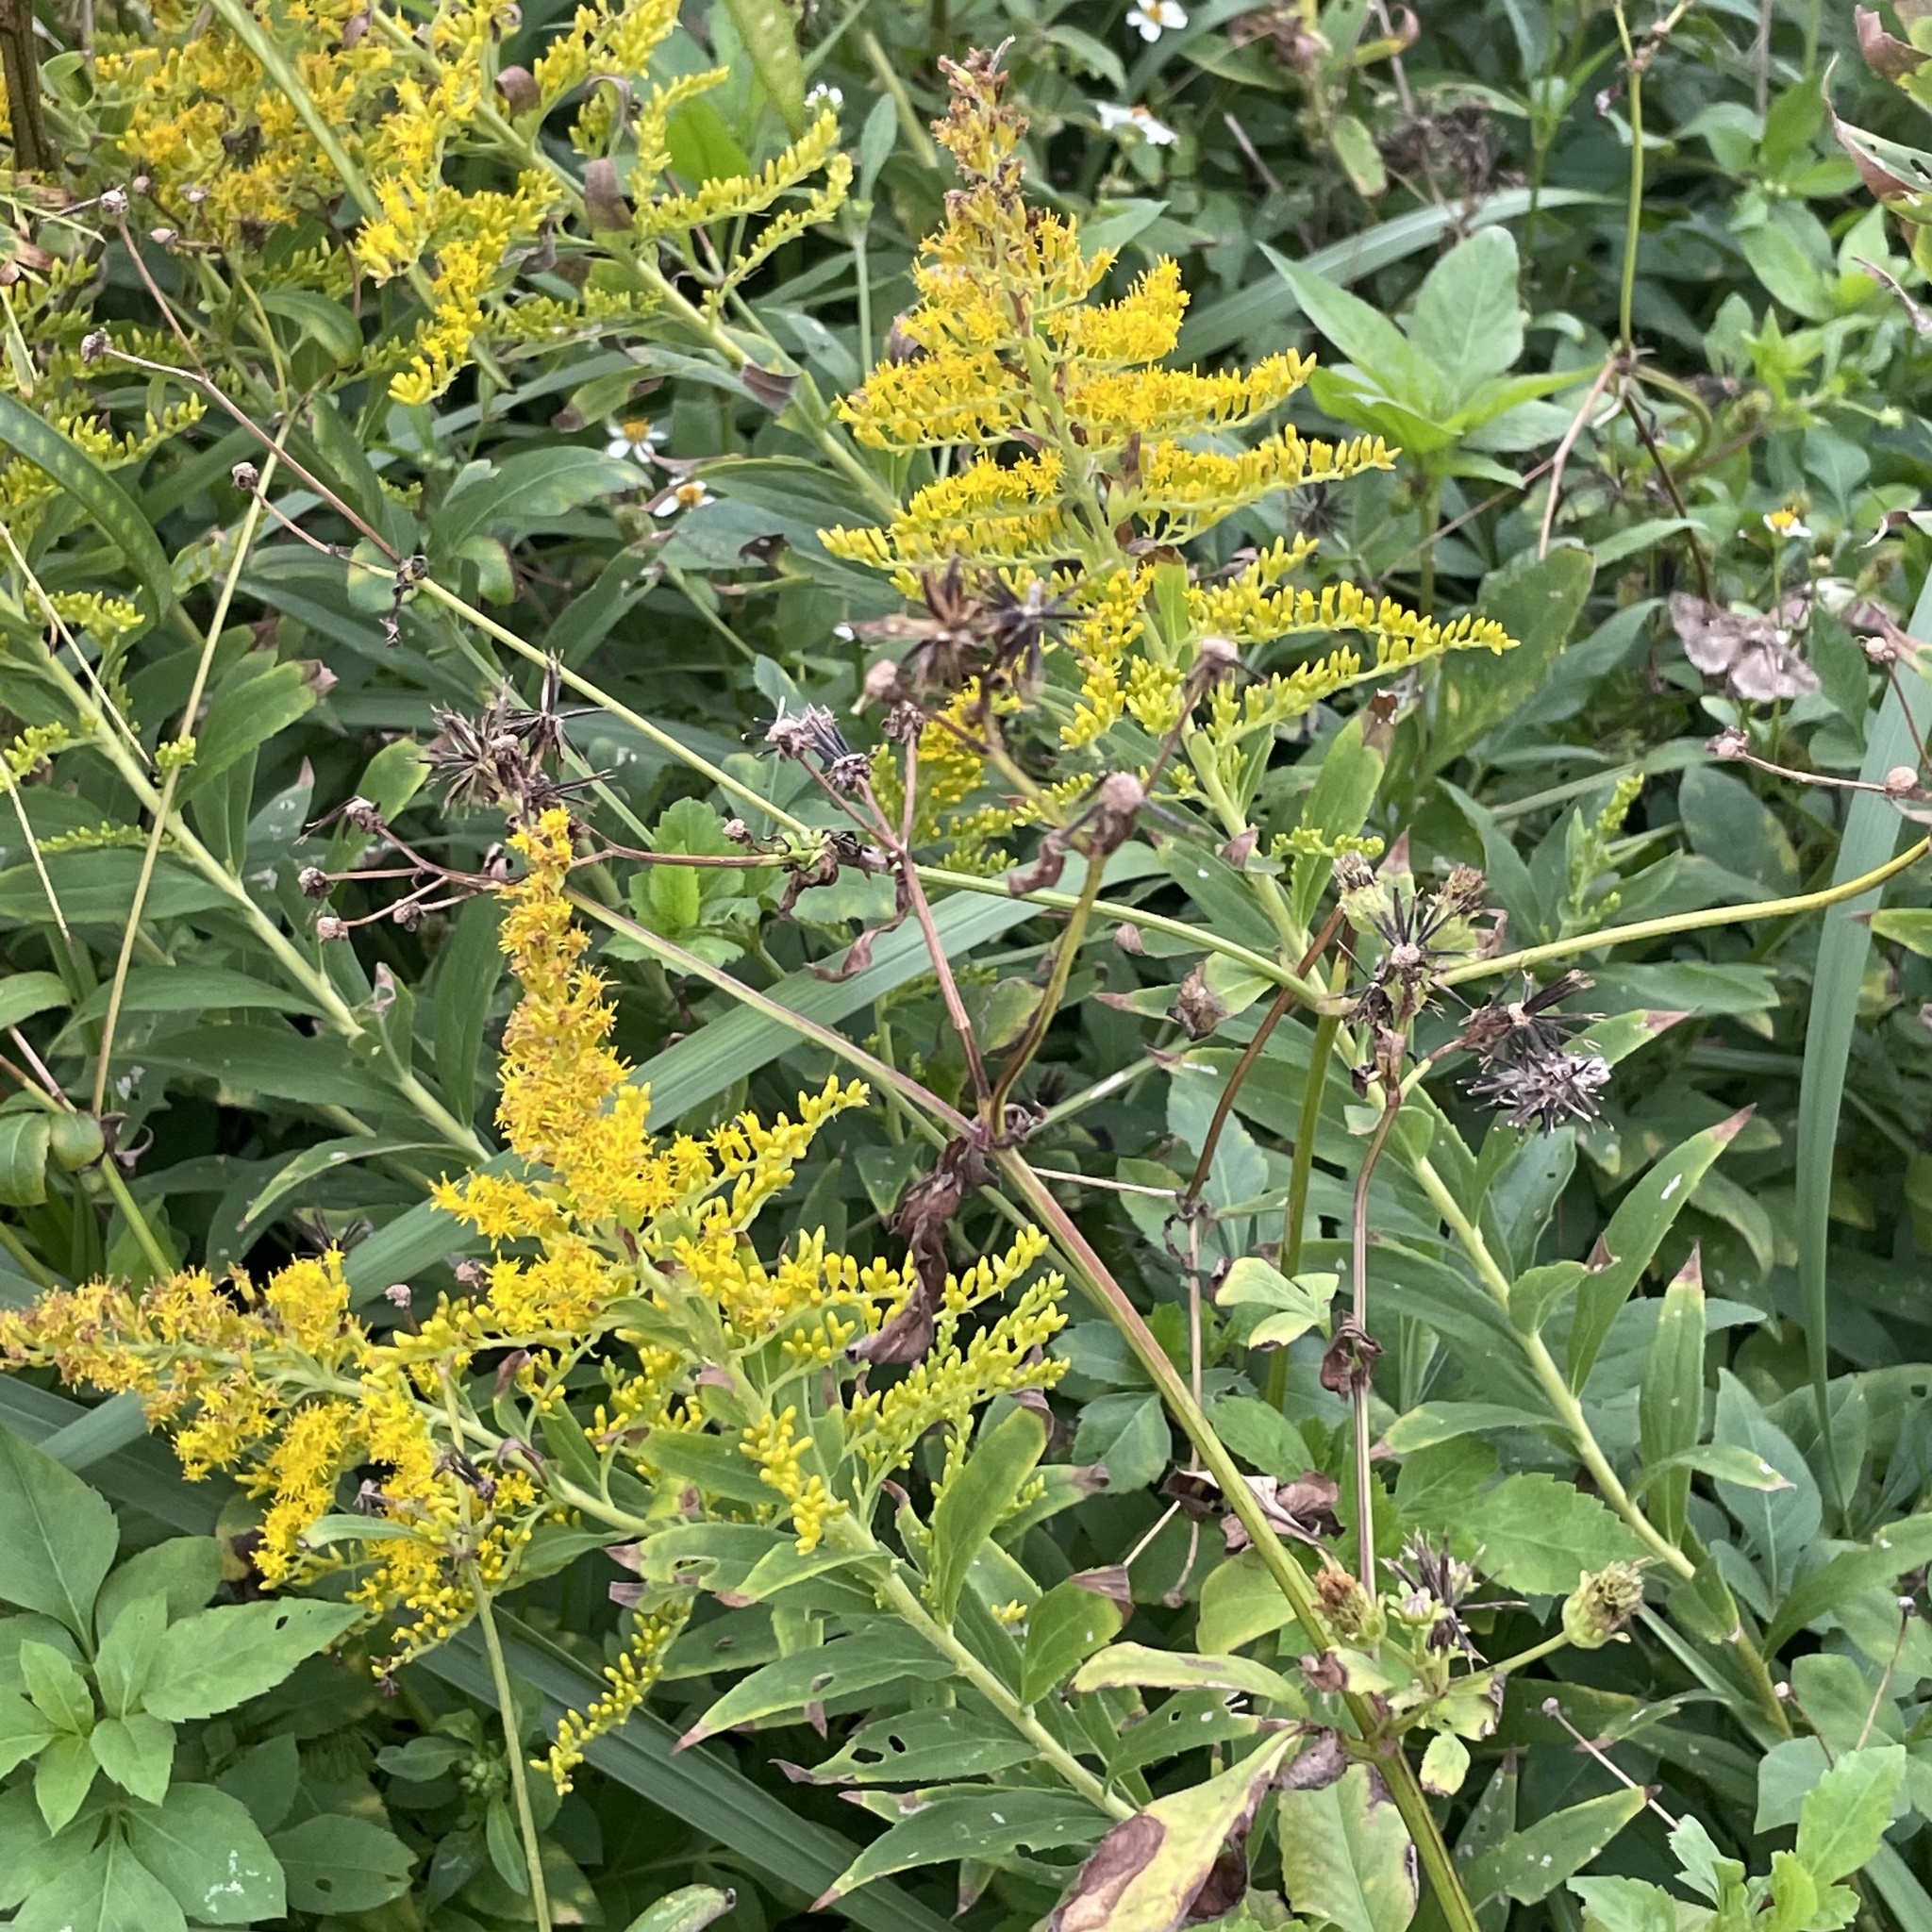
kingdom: Plantae
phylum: Tracheophyta
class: Magnoliopsida
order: Asterales
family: Asteraceae
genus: Solidago
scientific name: Solidago altissima
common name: Late goldenrod
